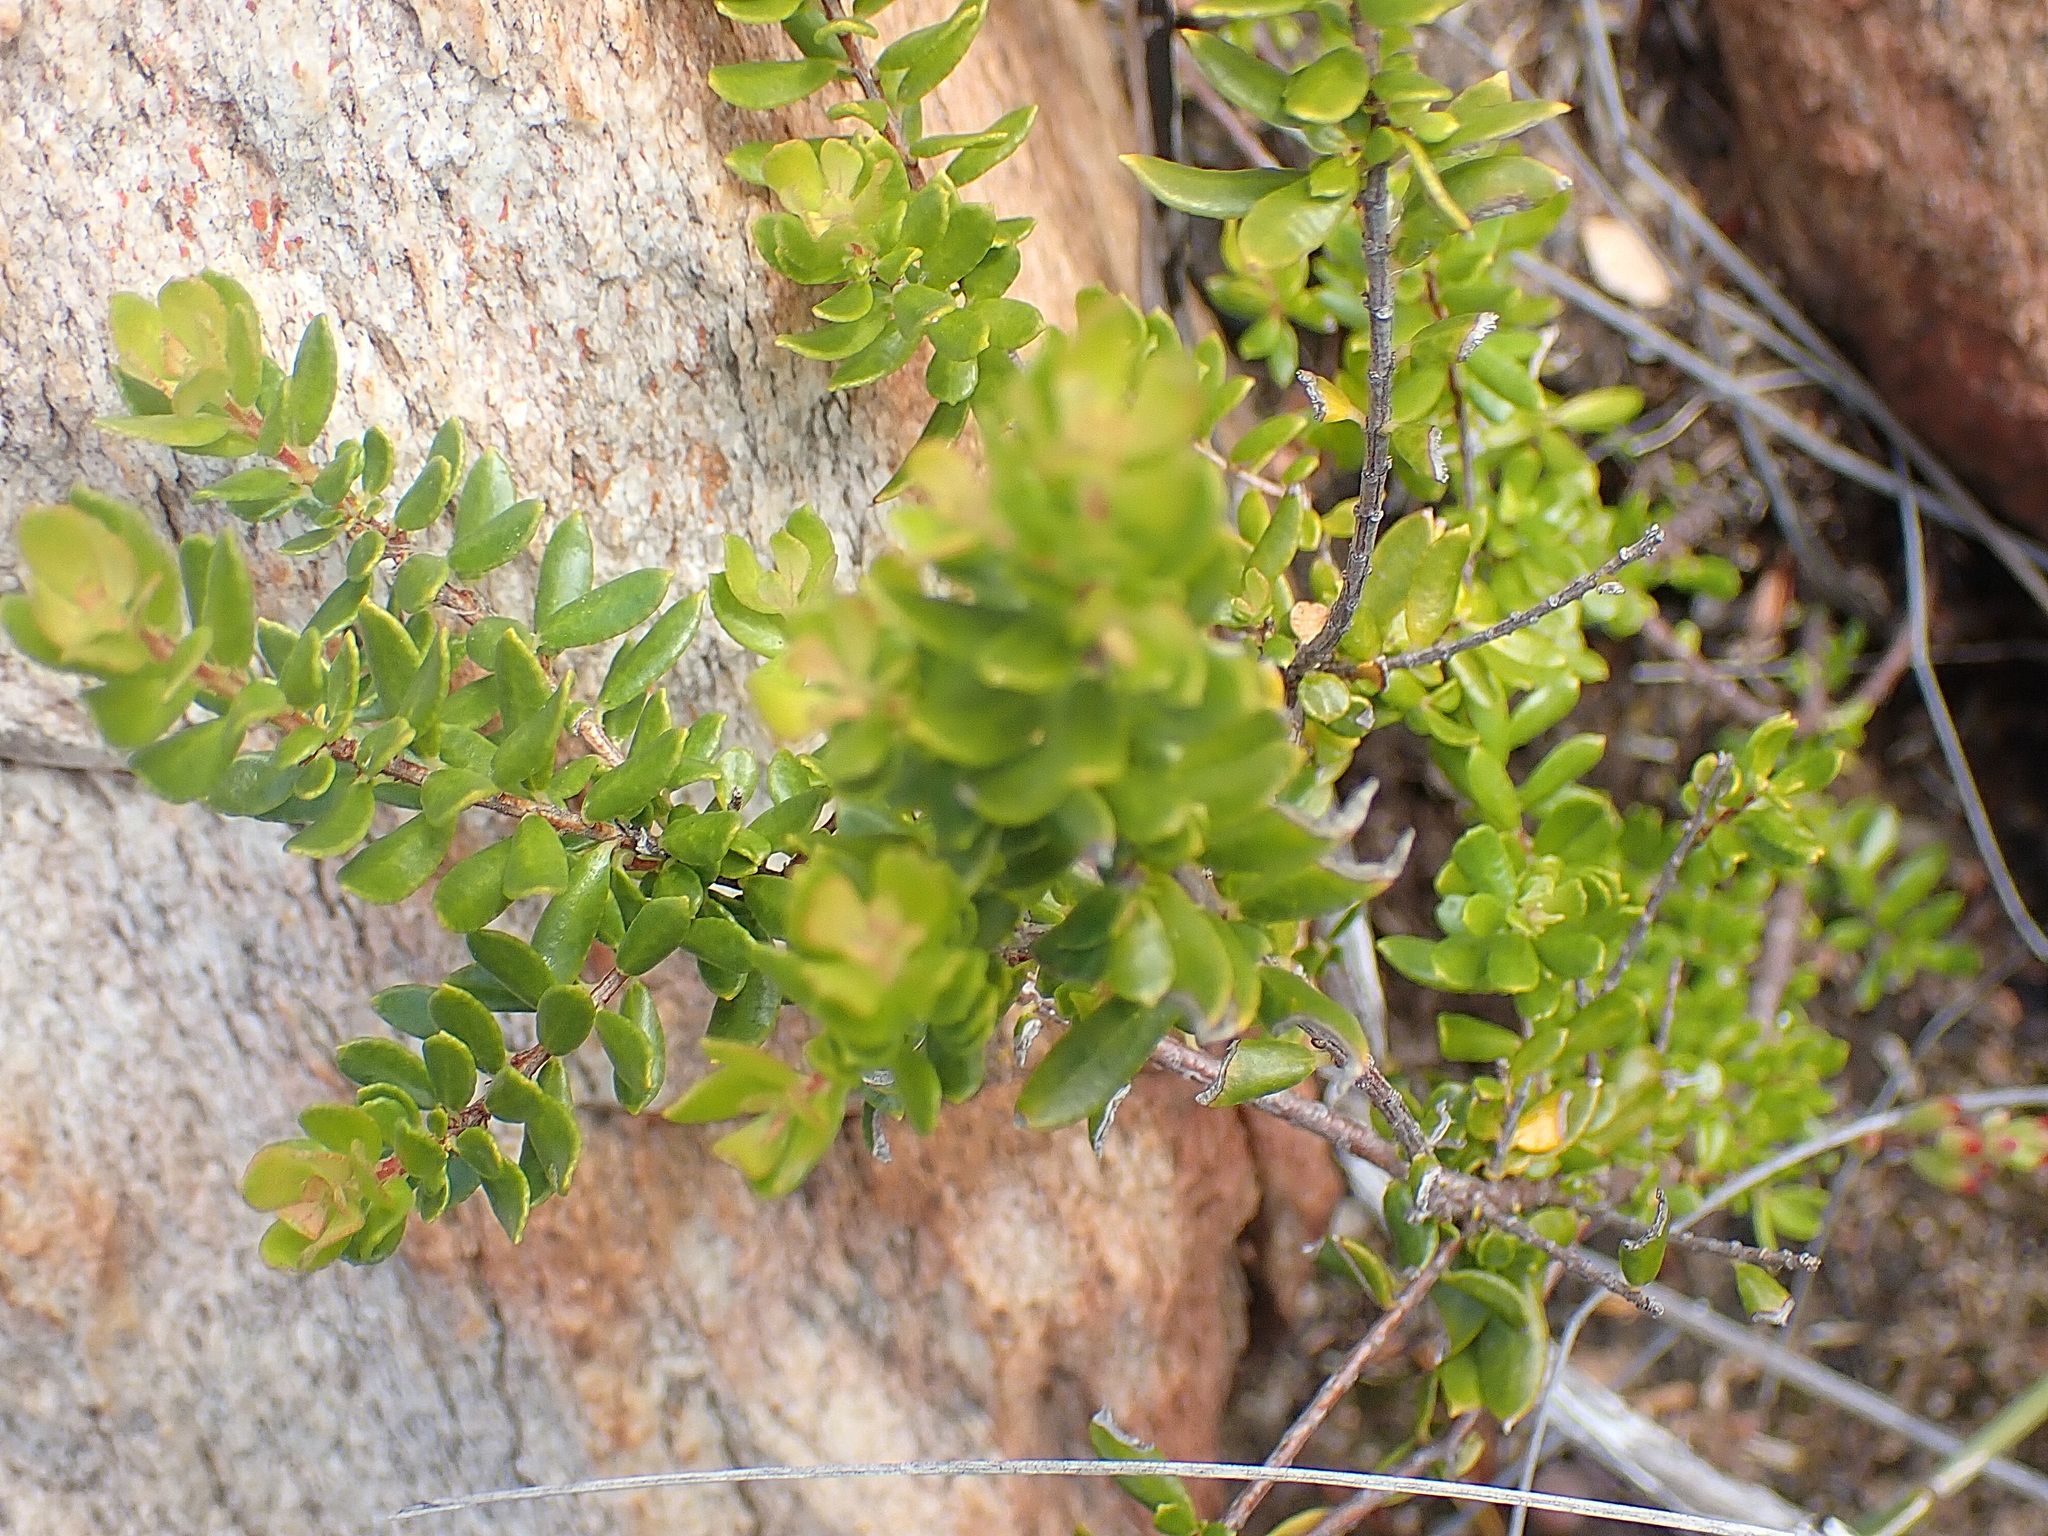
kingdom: Plantae
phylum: Tracheophyta
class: Magnoliopsida
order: Sapindales
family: Rutaceae
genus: Agathosma
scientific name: Agathosma ovata
